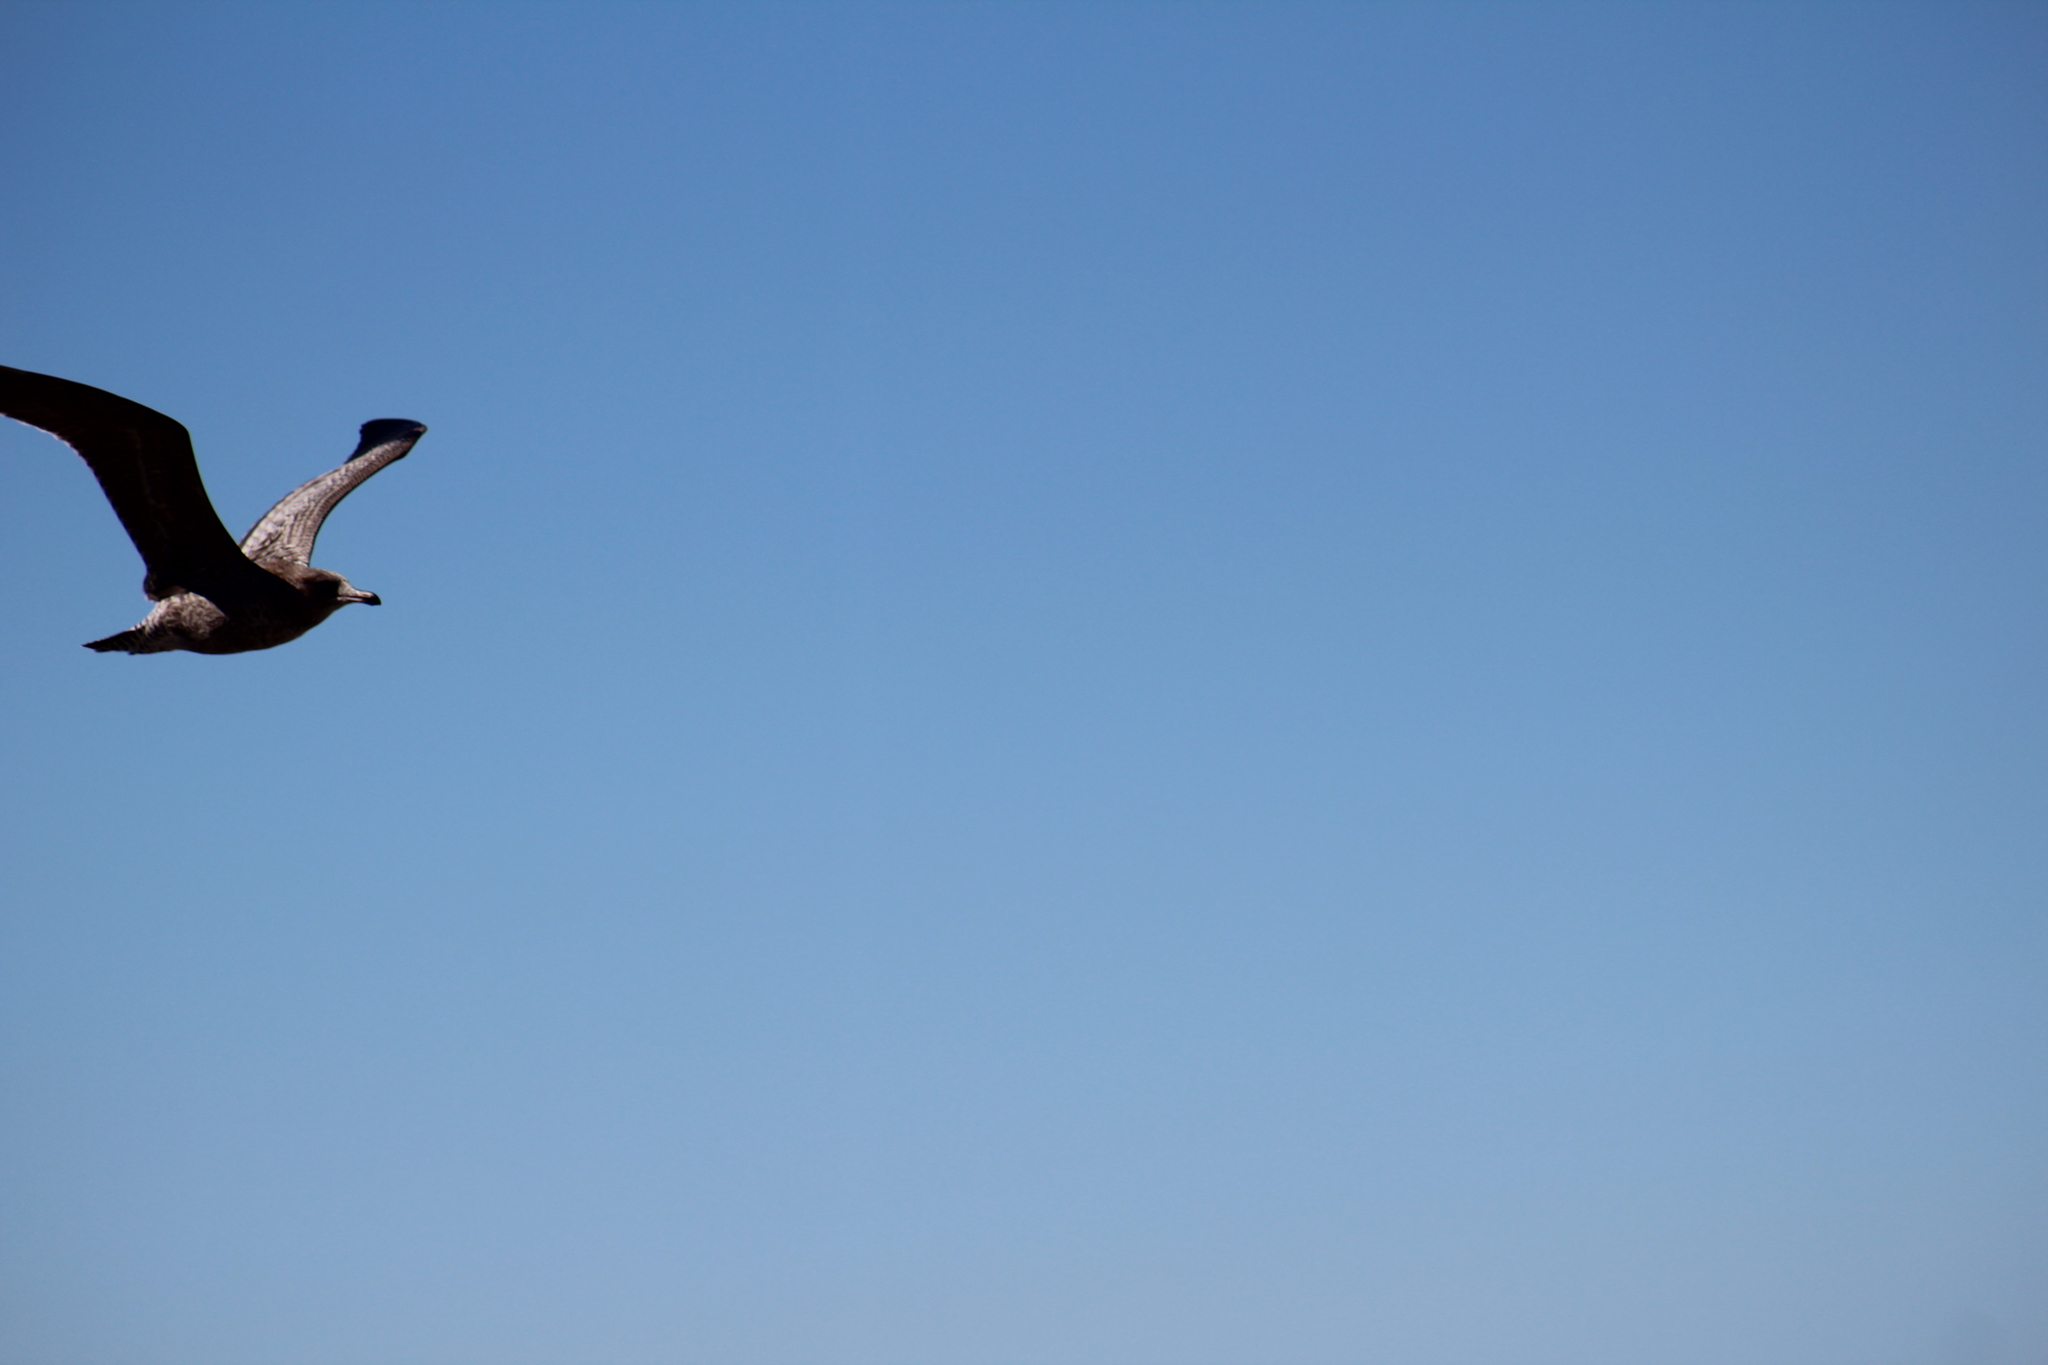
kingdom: Animalia
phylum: Chordata
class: Aves
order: Charadriiformes
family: Laridae
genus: Larus
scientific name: Larus
